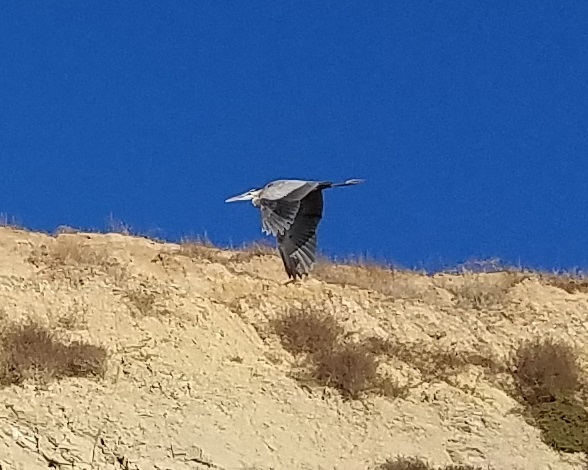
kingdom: Animalia
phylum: Chordata
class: Aves
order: Pelecaniformes
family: Ardeidae
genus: Ardea
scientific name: Ardea herodias
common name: Great blue heron
